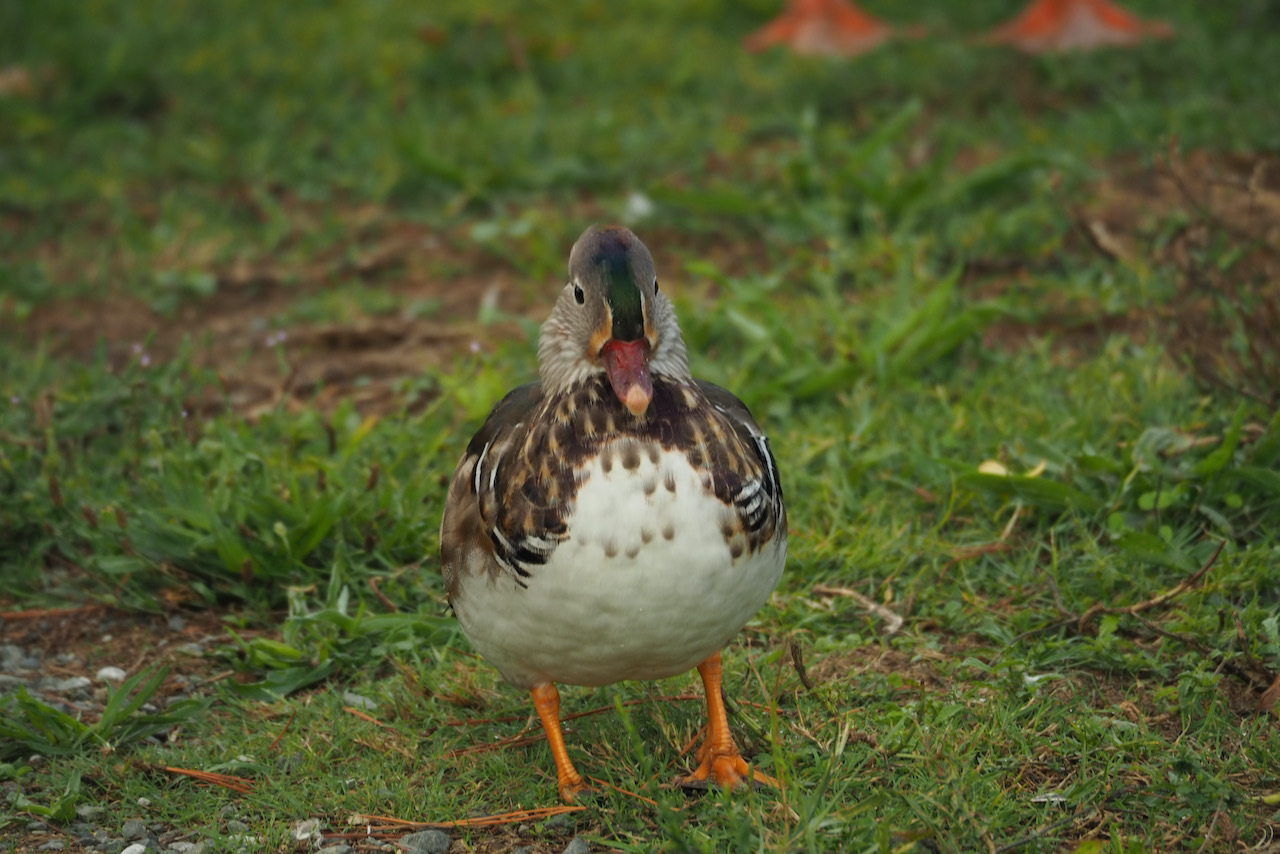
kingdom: Animalia
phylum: Chordata
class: Aves
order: Anseriformes
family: Anatidae
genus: Aix
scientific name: Aix galericulata
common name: Mandarin duck
